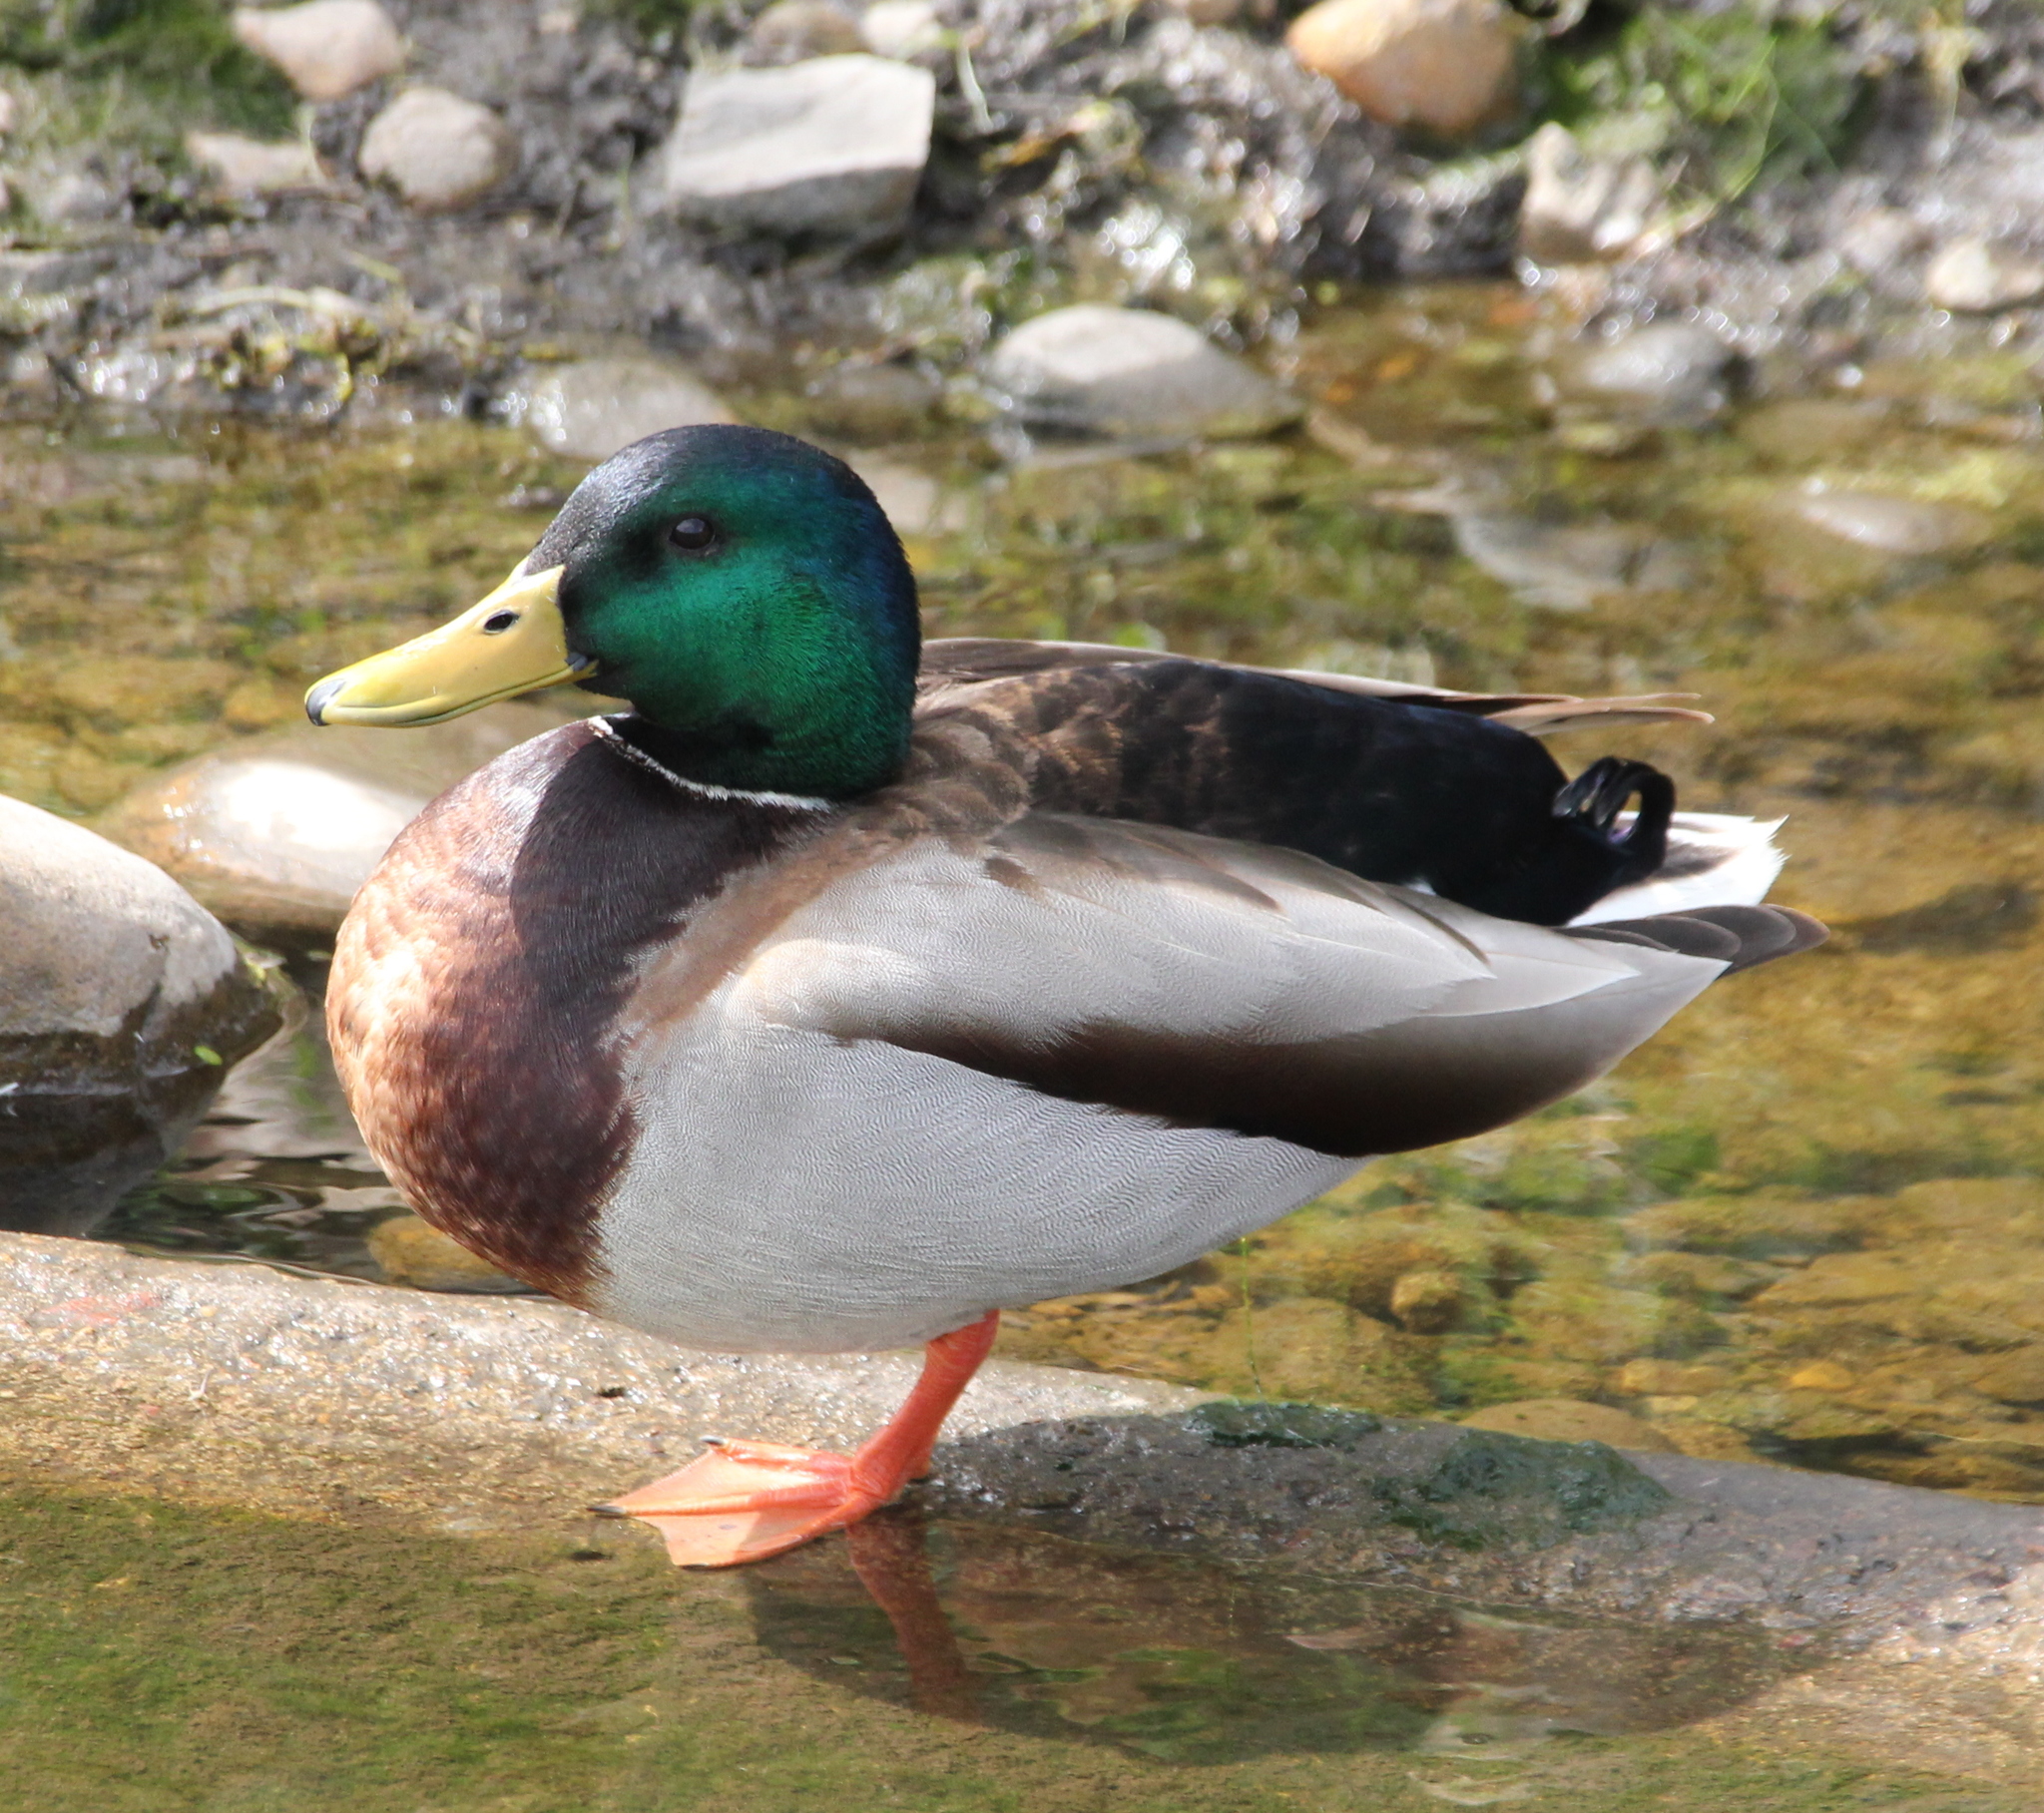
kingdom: Animalia
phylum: Chordata
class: Aves
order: Anseriformes
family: Anatidae
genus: Anas
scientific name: Anas platyrhynchos
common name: Mallard
